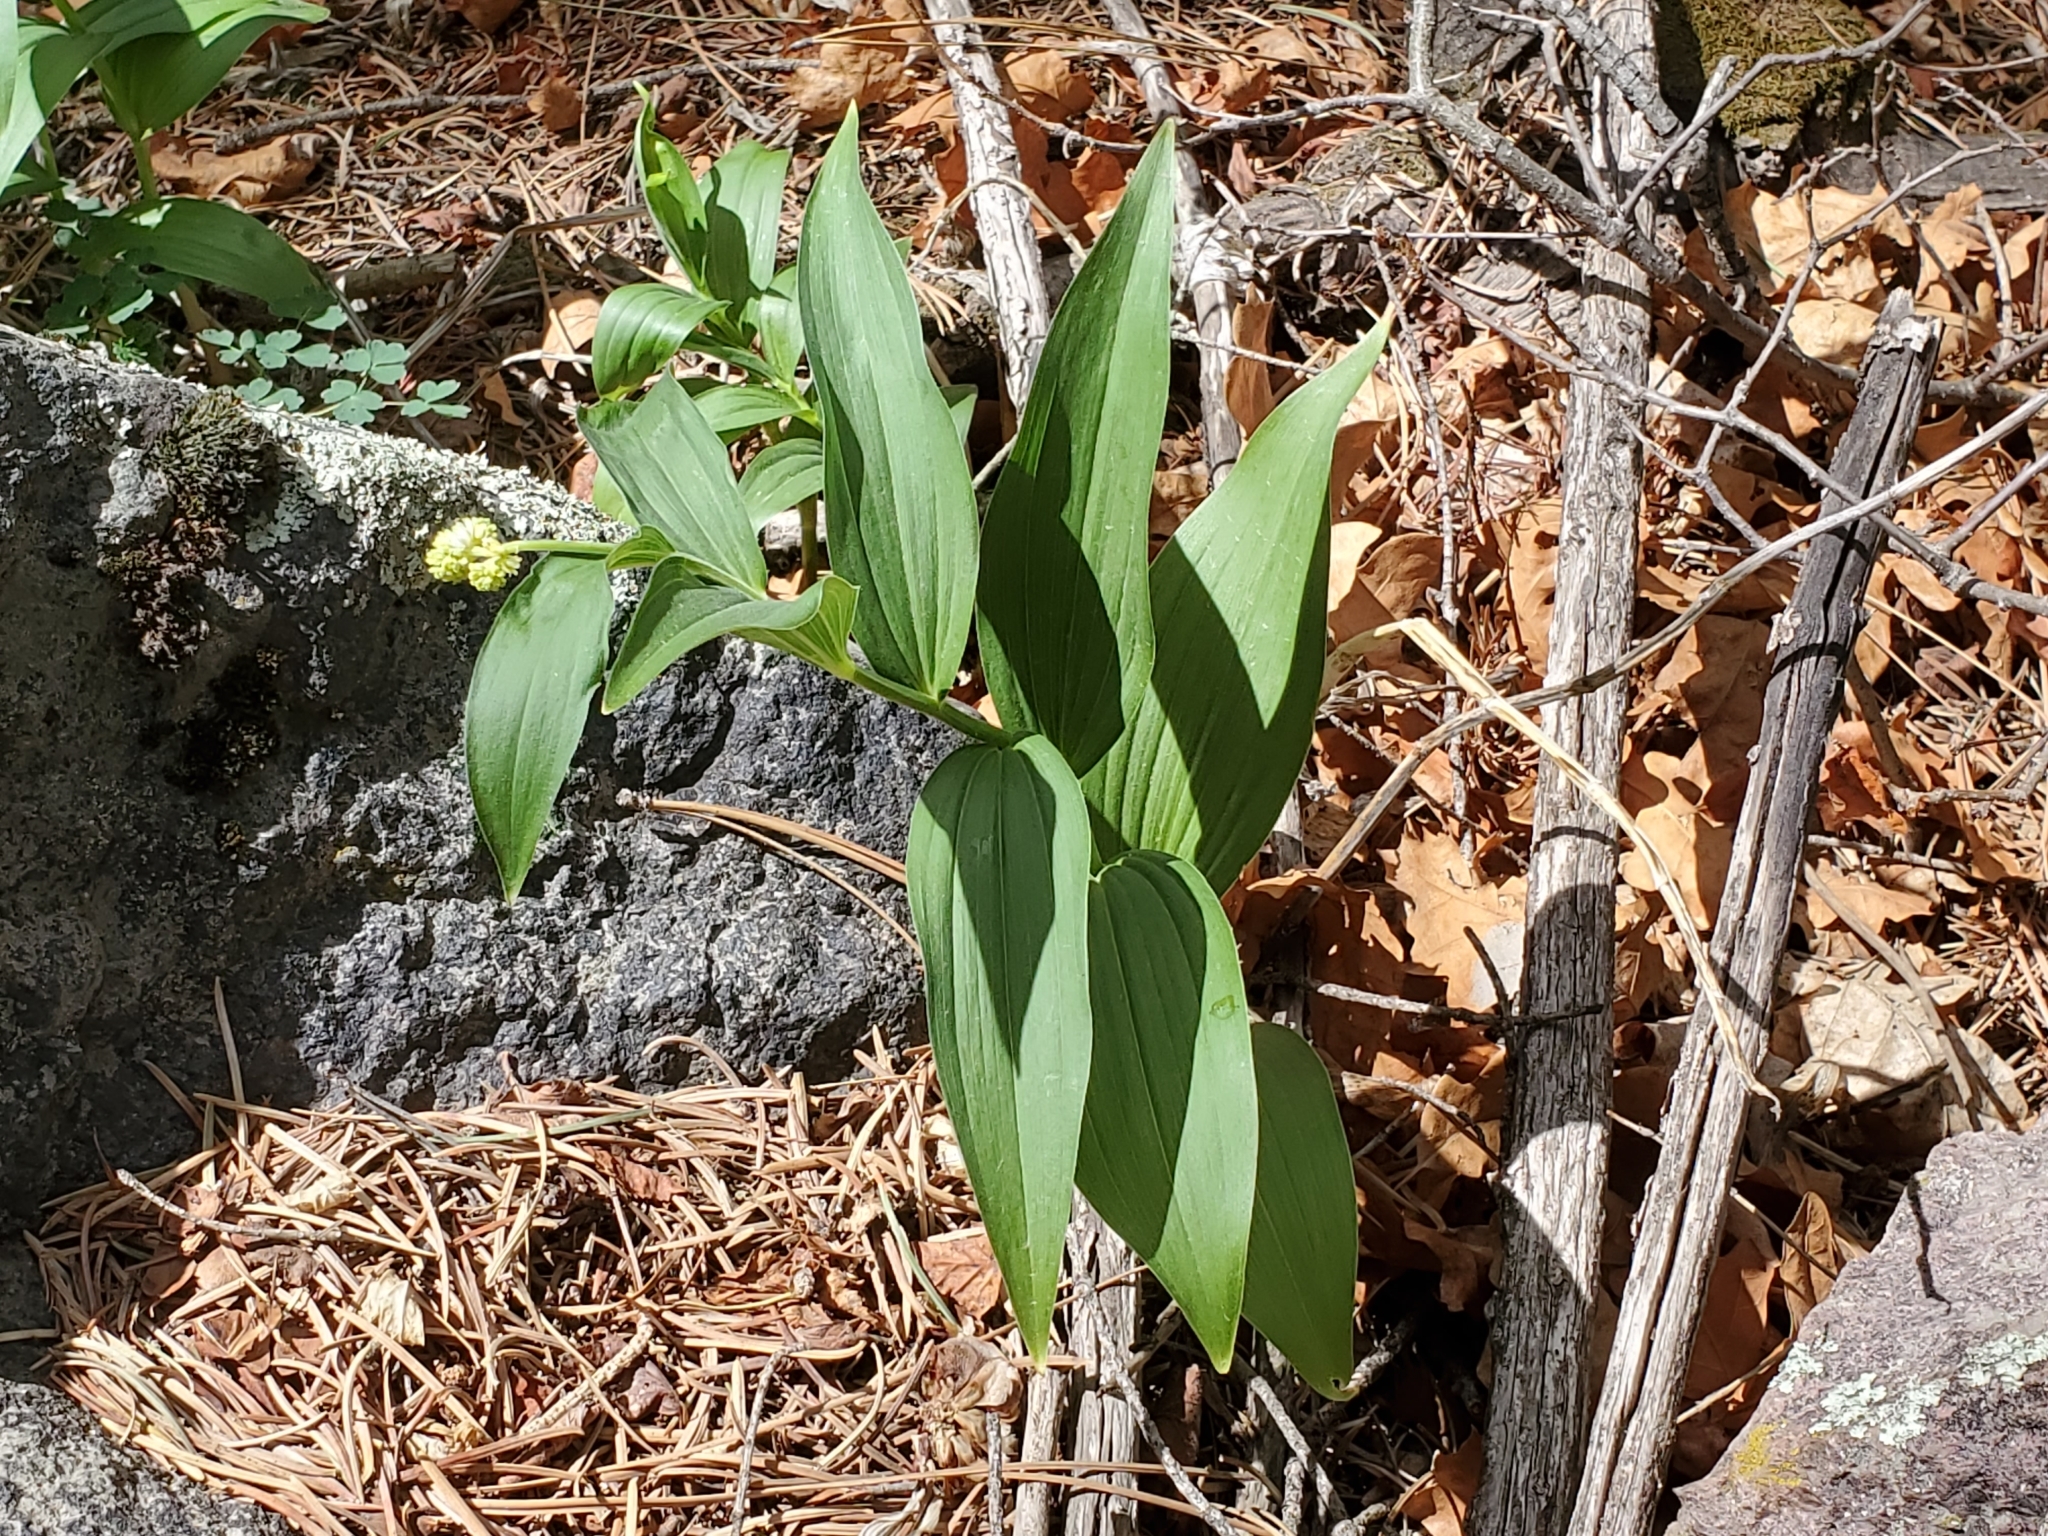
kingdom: Plantae
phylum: Tracheophyta
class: Liliopsida
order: Asparagales
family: Asparagaceae
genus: Maianthemum
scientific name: Maianthemum racemosum
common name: False spikenard
